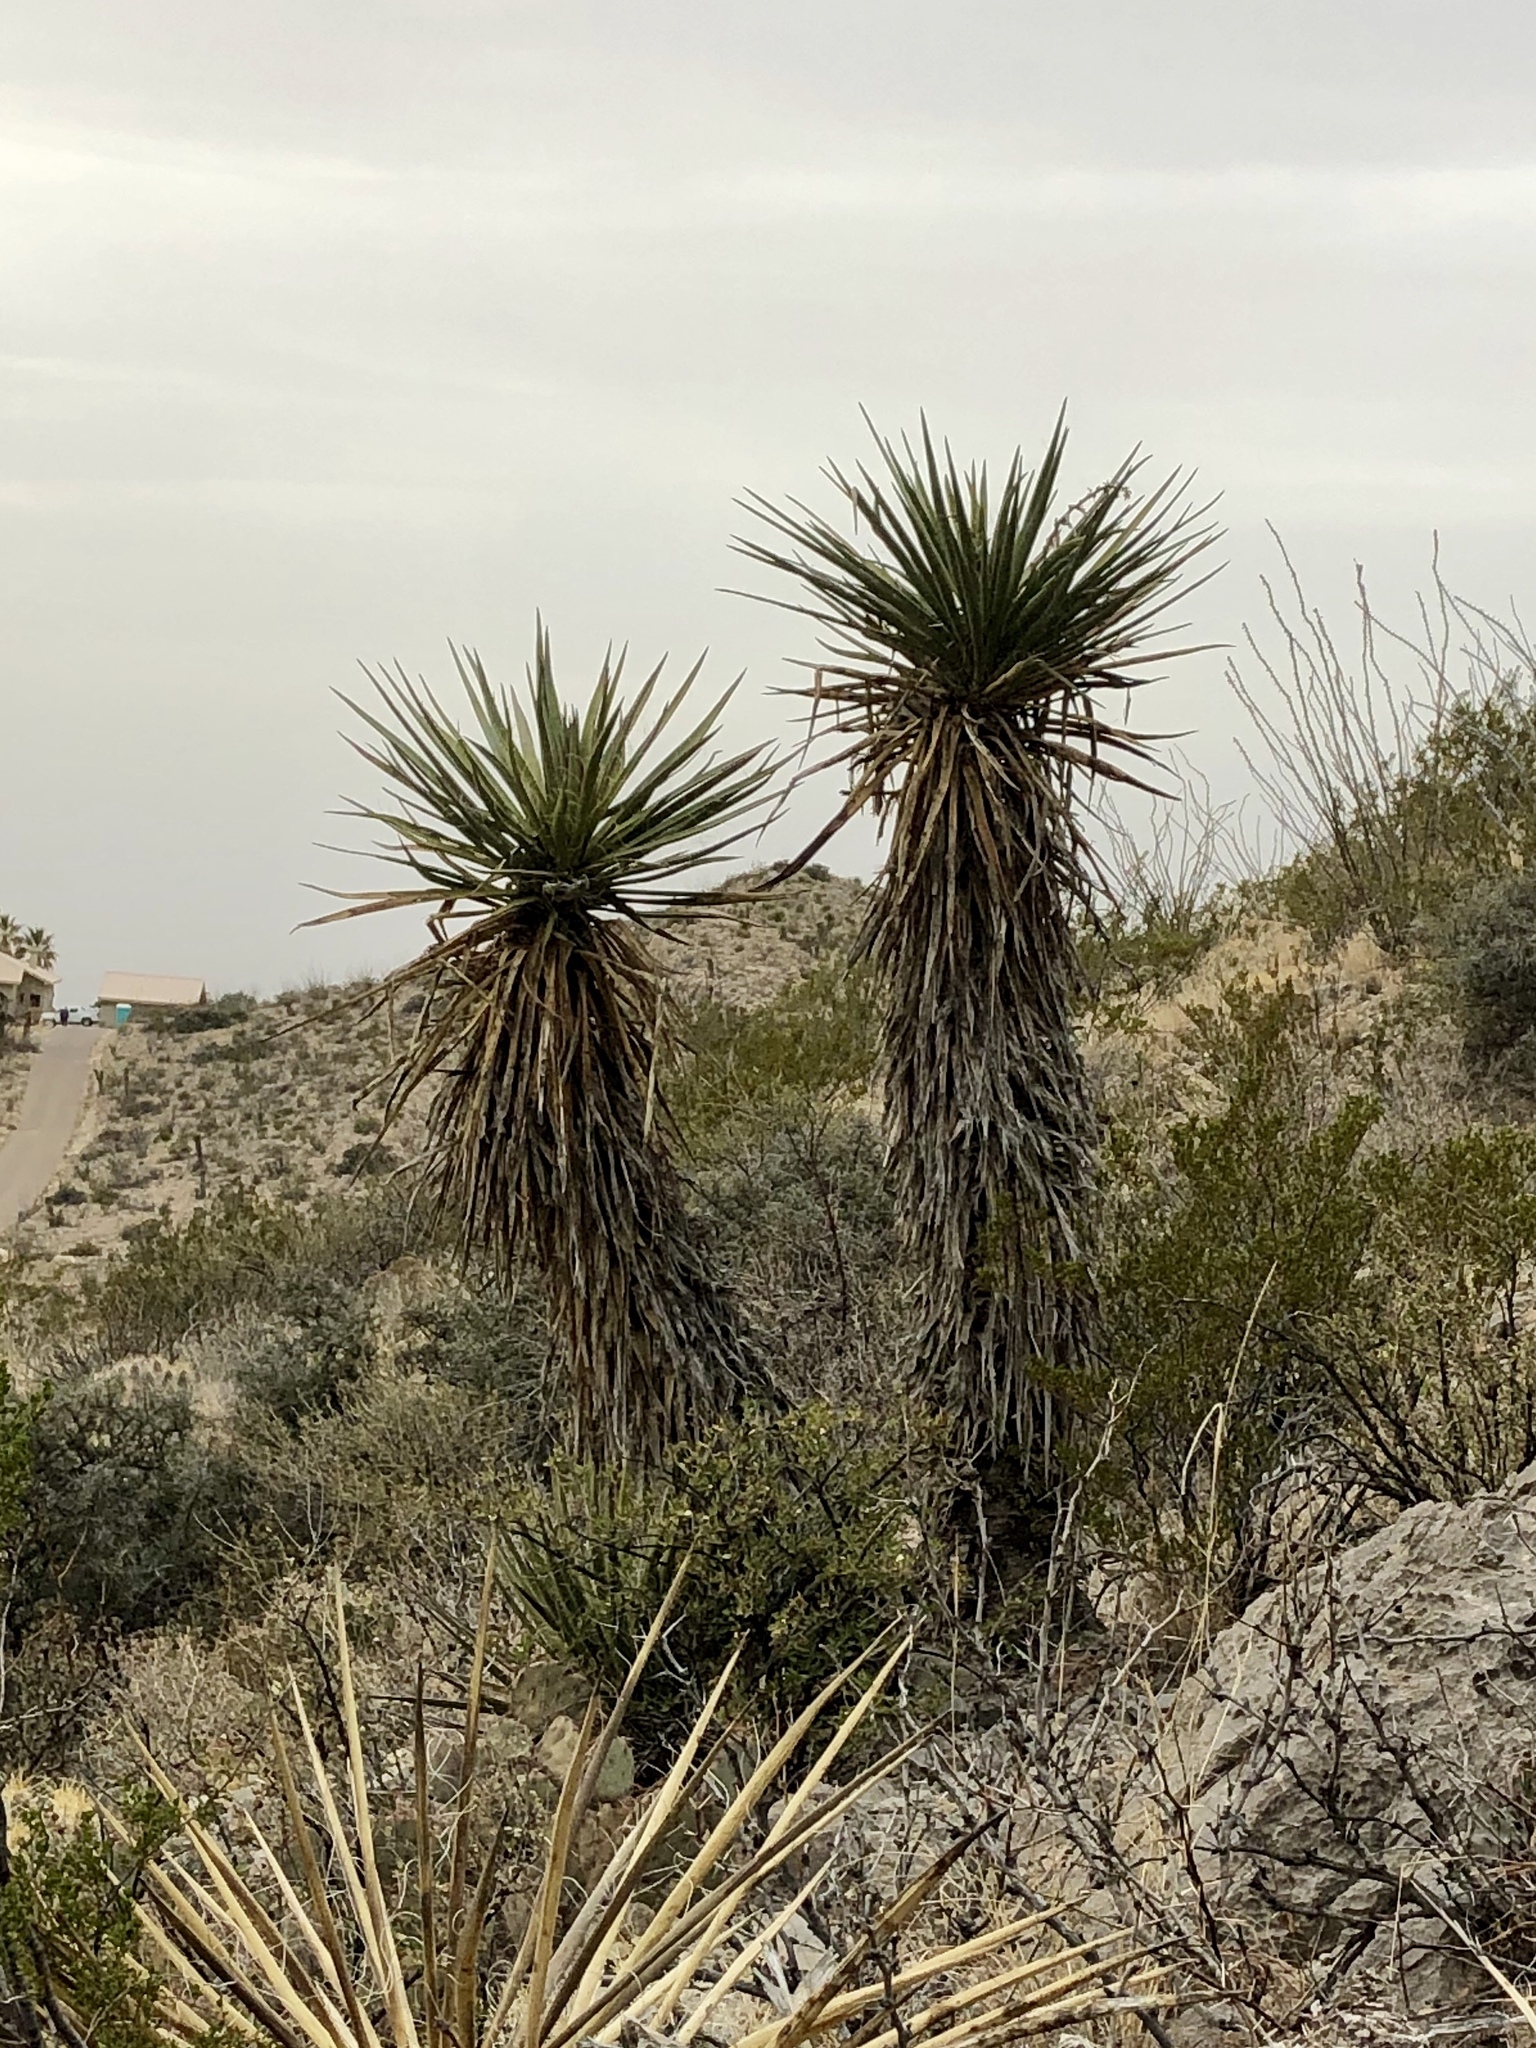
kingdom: Plantae
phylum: Tracheophyta
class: Liliopsida
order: Asparagales
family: Asparagaceae
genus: Yucca
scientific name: Yucca treculiana
